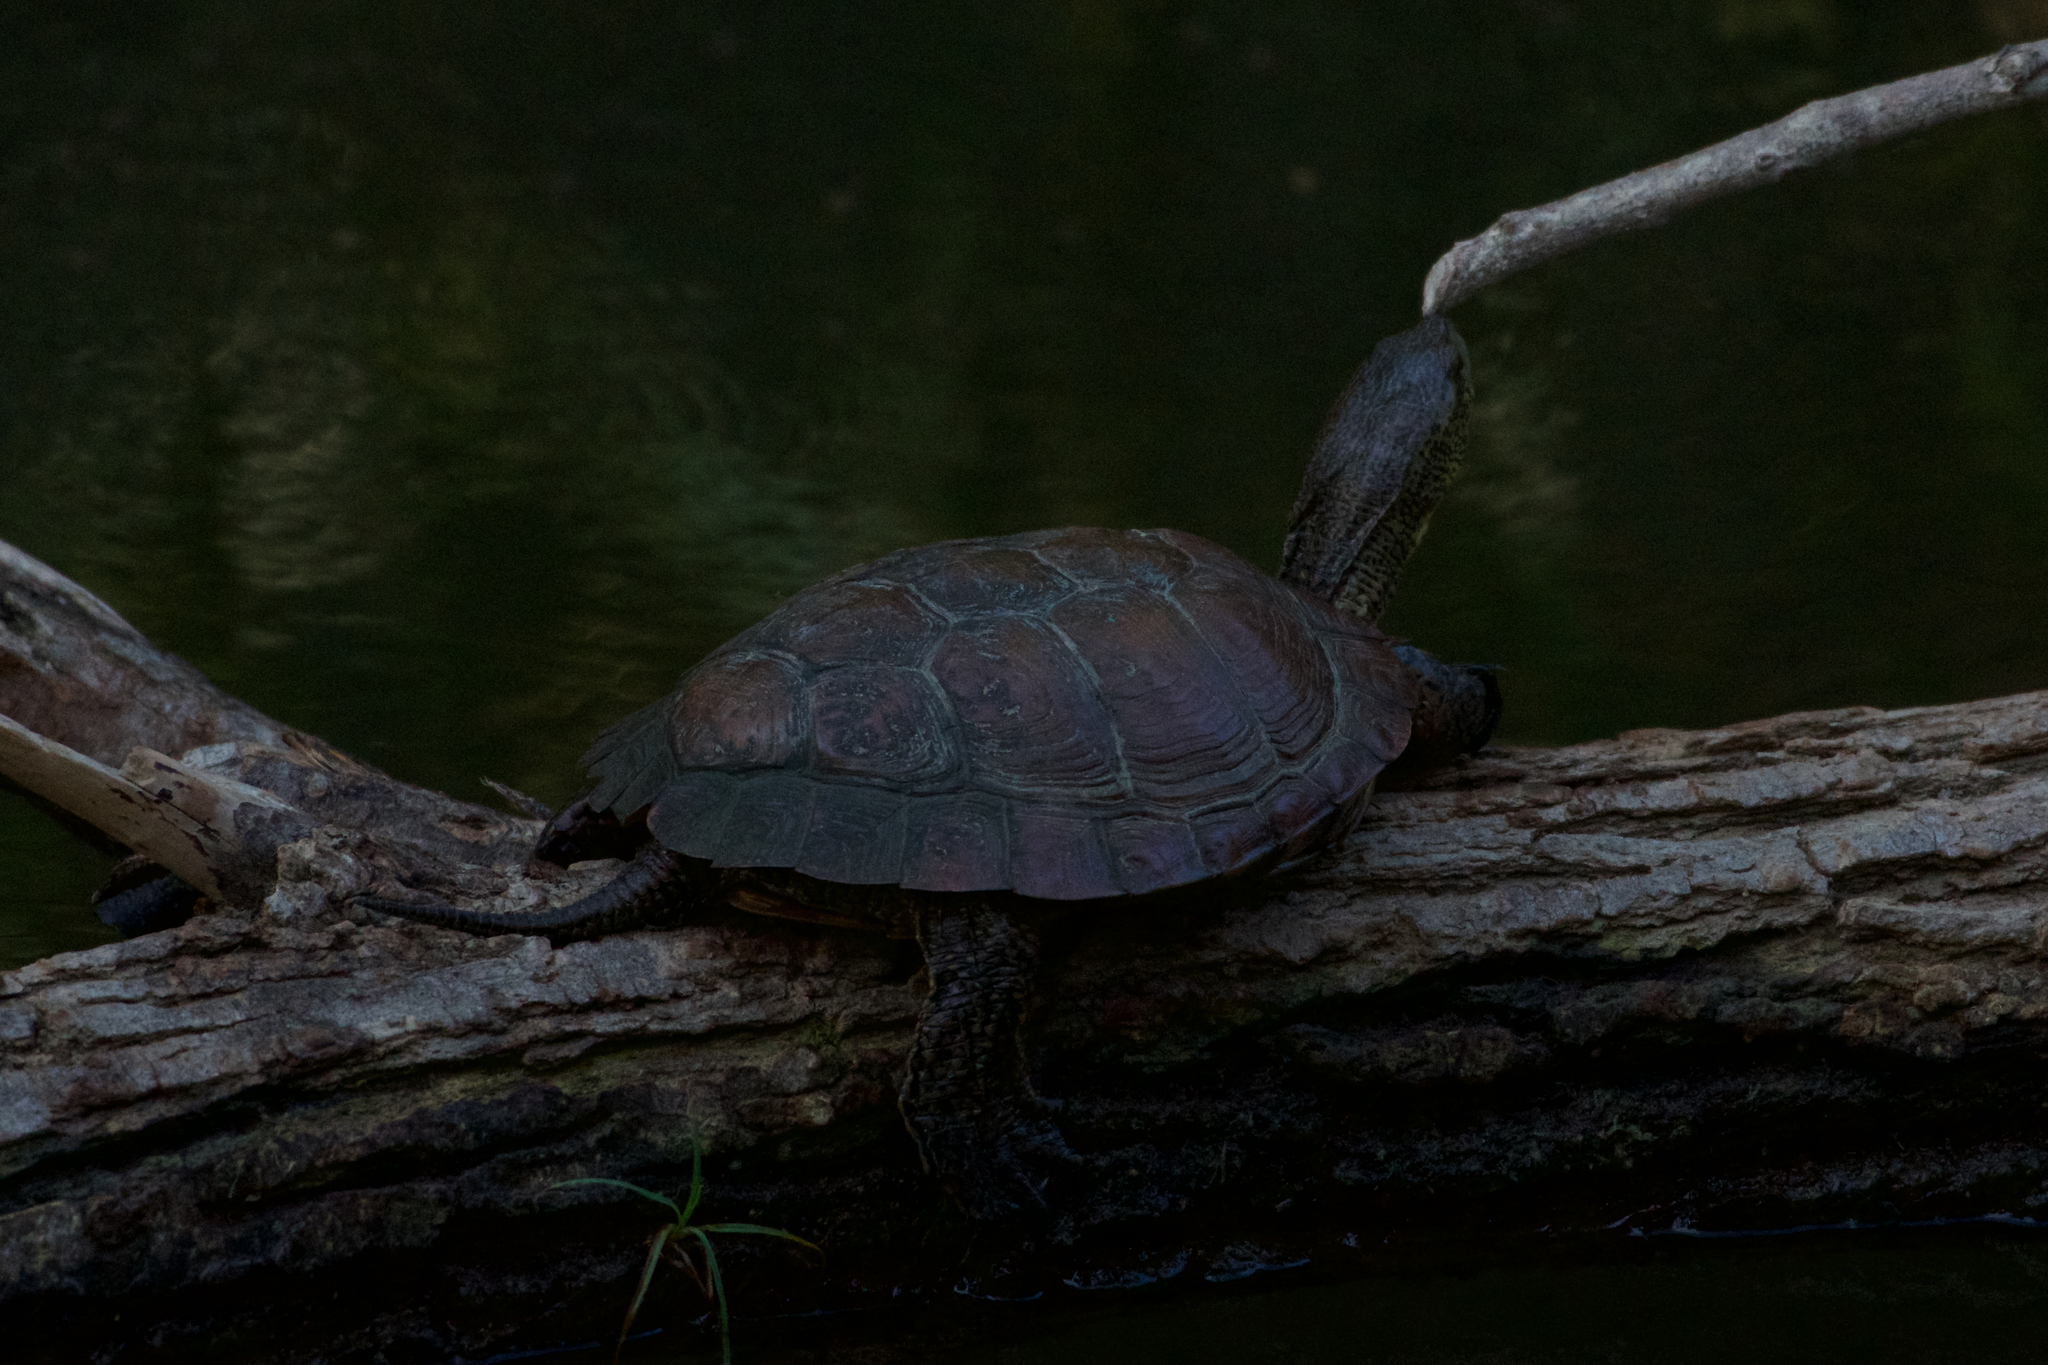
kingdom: Animalia
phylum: Chordata
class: Testudines
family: Emydidae
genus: Actinemys
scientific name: Actinemys marmorata
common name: Western pond turtle
